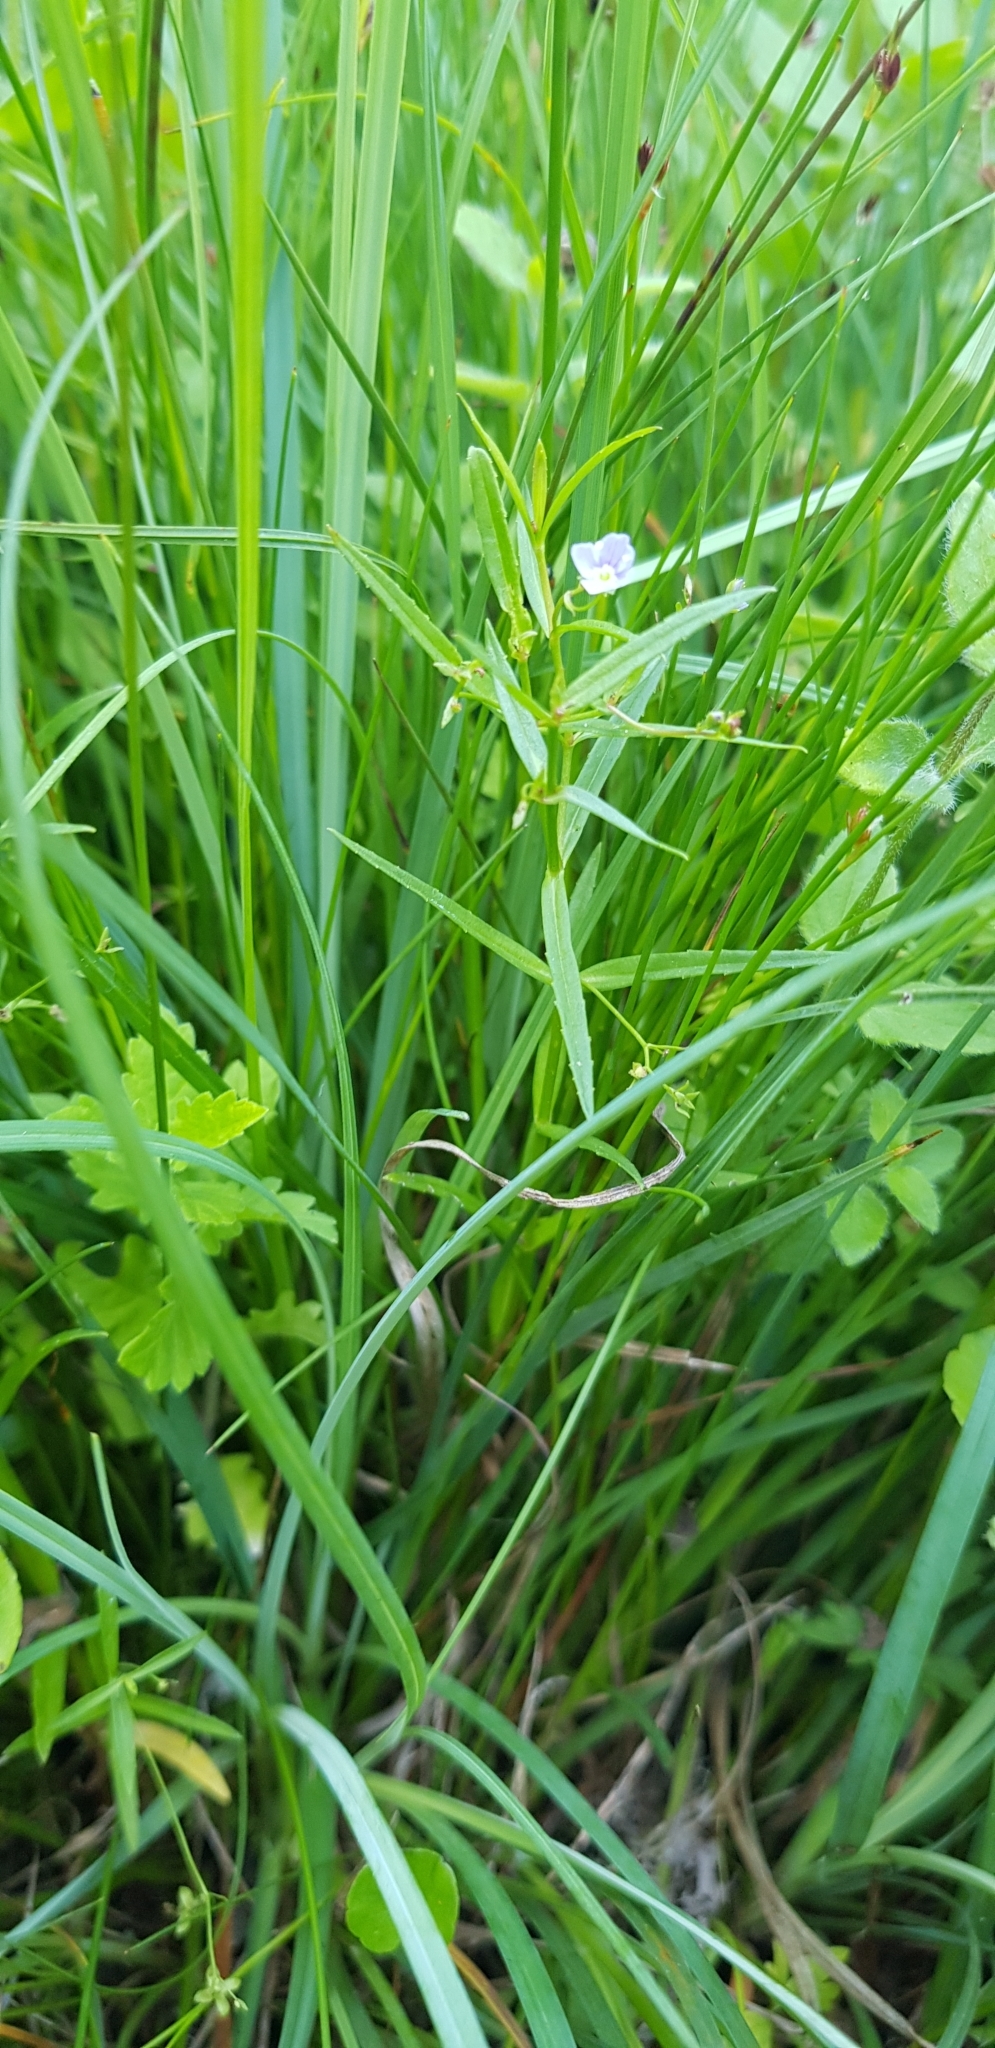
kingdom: Plantae
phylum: Tracheophyta
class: Magnoliopsida
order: Lamiales
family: Plantaginaceae
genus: Veronica
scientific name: Veronica scutellata
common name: Marsh speedwell
